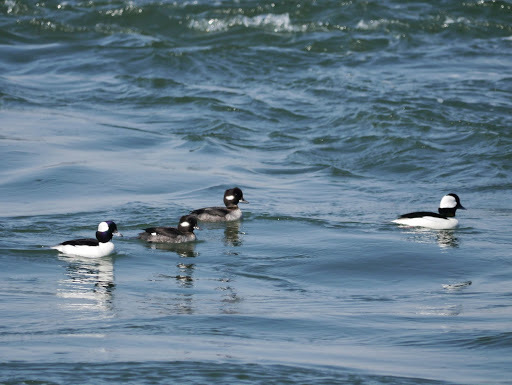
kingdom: Animalia
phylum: Chordata
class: Aves
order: Anseriformes
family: Anatidae
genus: Bucephala
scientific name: Bucephala albeola
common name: Bufflehead
